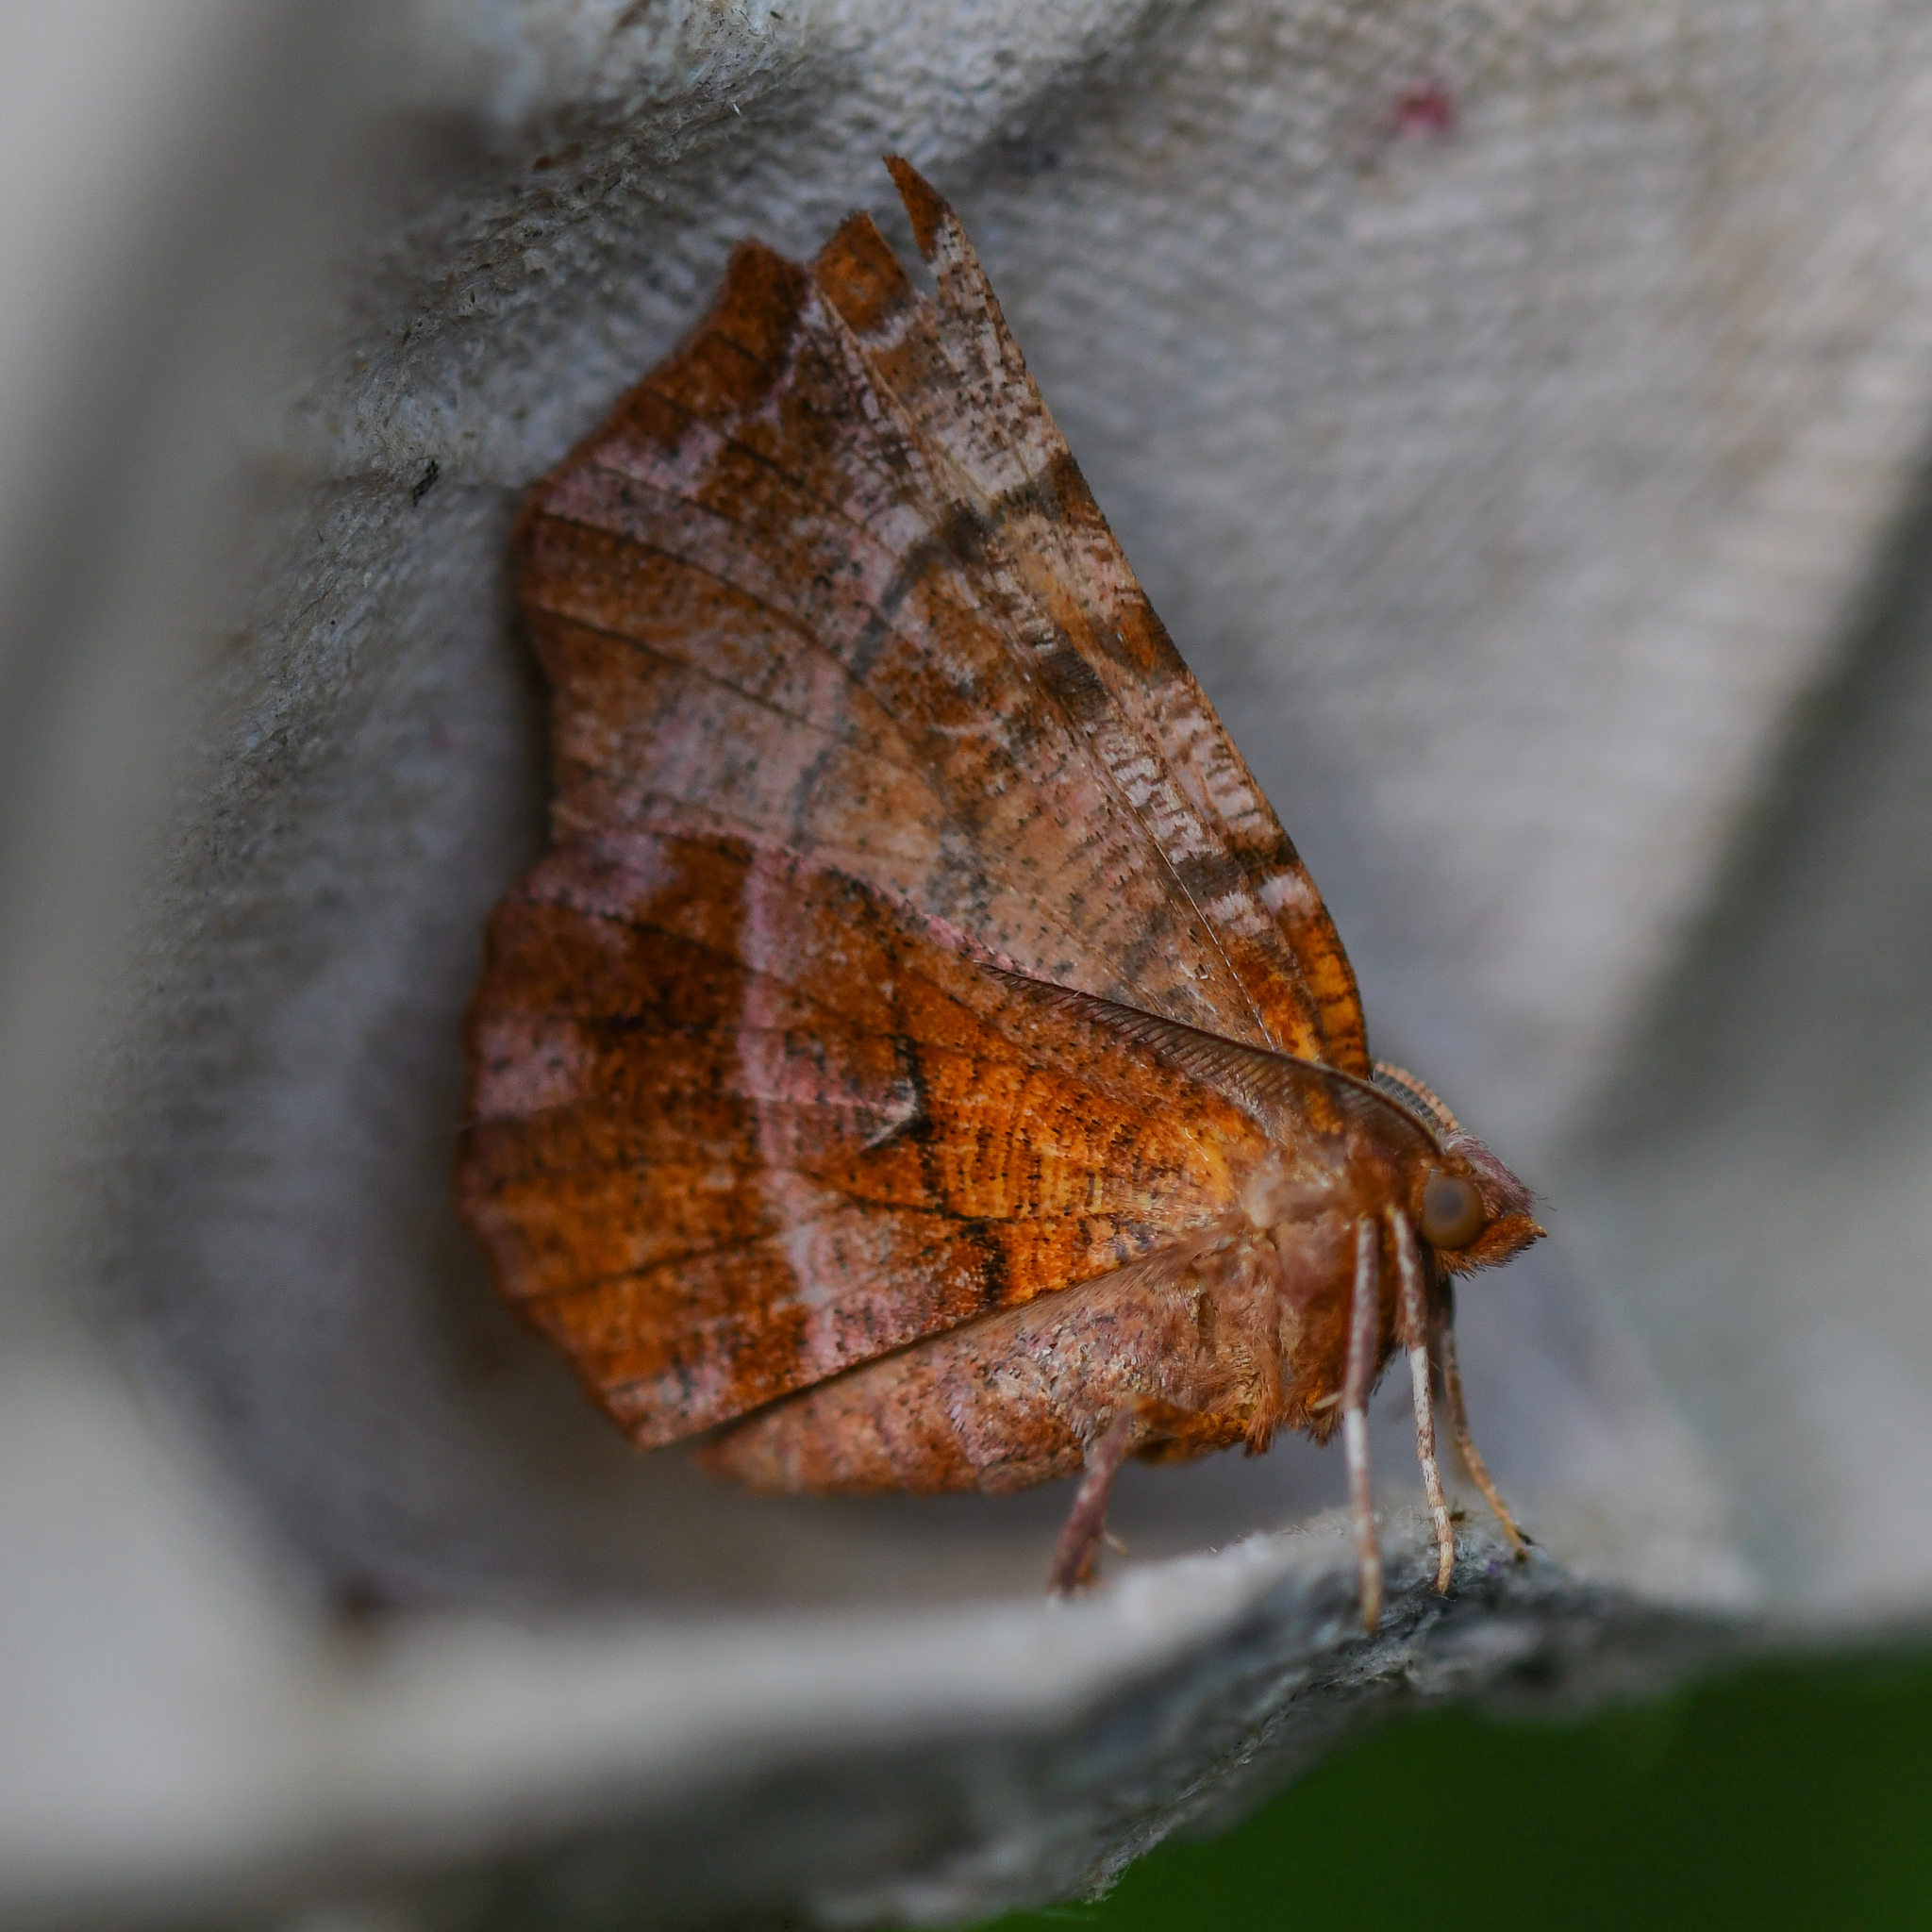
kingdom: Animalia
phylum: Arthropoda
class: Insecta
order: Lepidoptera
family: Geometridae
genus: Selenia
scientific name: Selenia dentaria
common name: Early thorn
